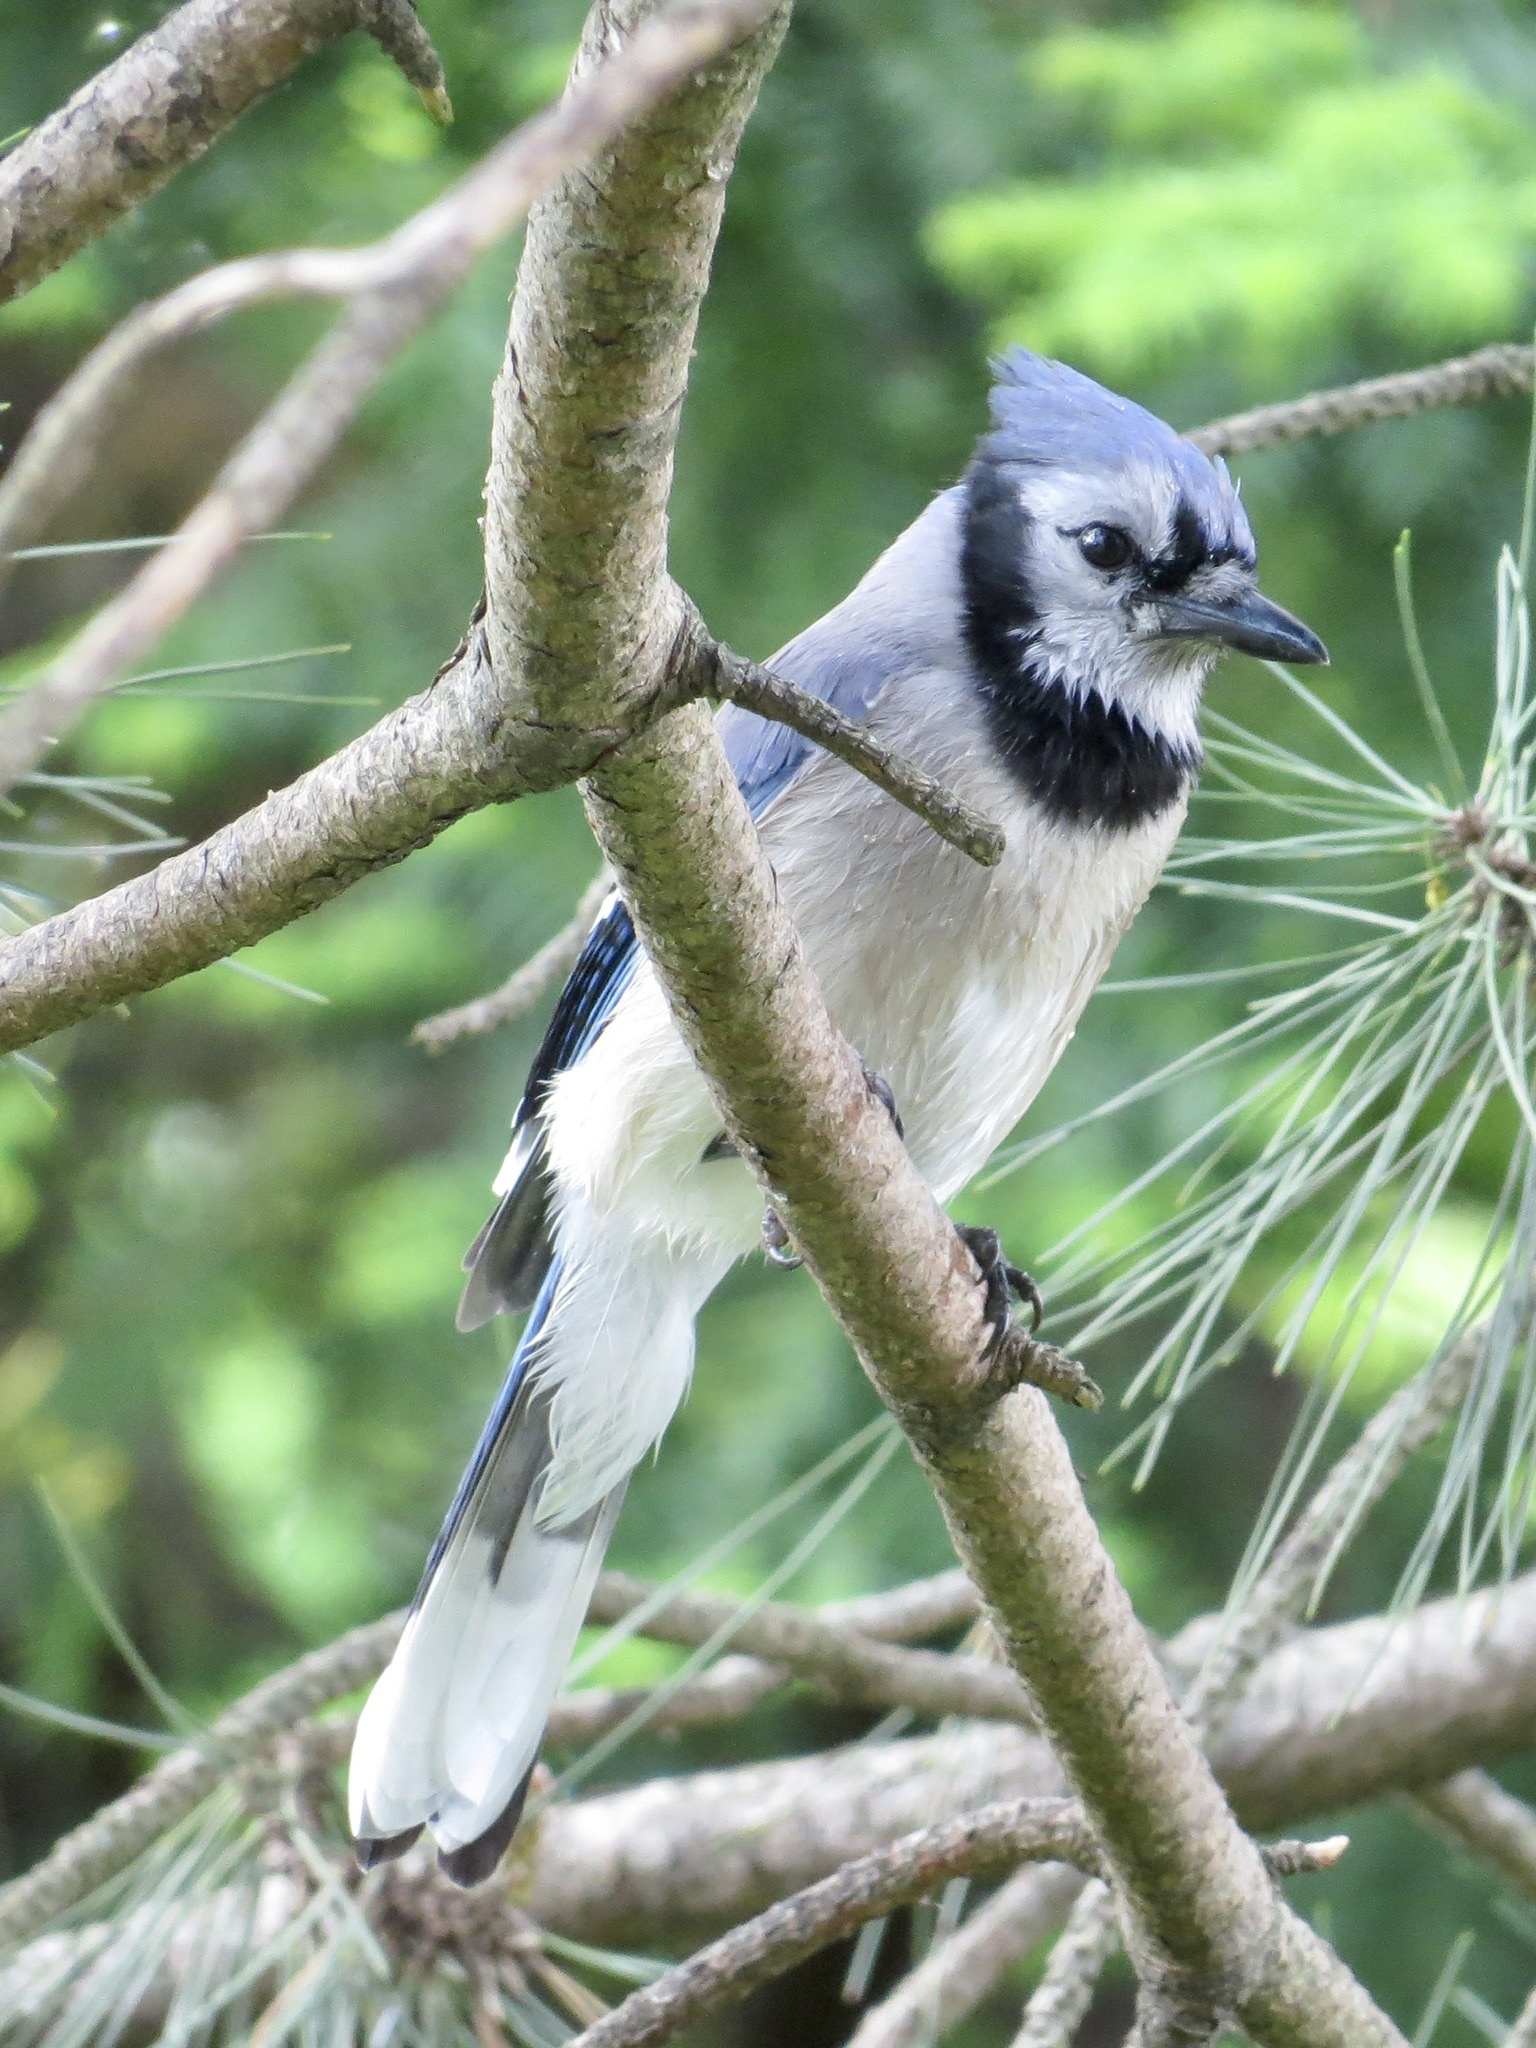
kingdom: Animalia
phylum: Chordata
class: Aves
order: Passeriformes
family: Corvidae
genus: Cyanocitta
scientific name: Cyanocitta cristata
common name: Blue jay
